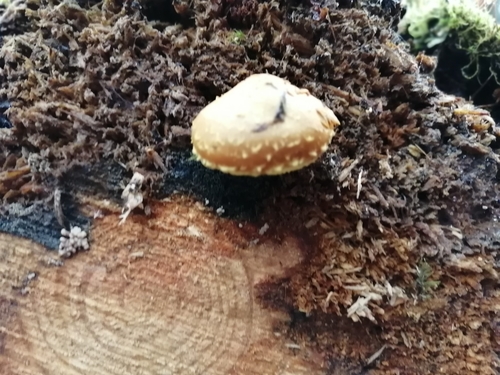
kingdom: Fungi
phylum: Basidiomycota
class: Agaricomycetes
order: Agaricales
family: Strophariaceae
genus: Pholiota
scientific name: Pholiota flammans
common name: Flaming scalycap
